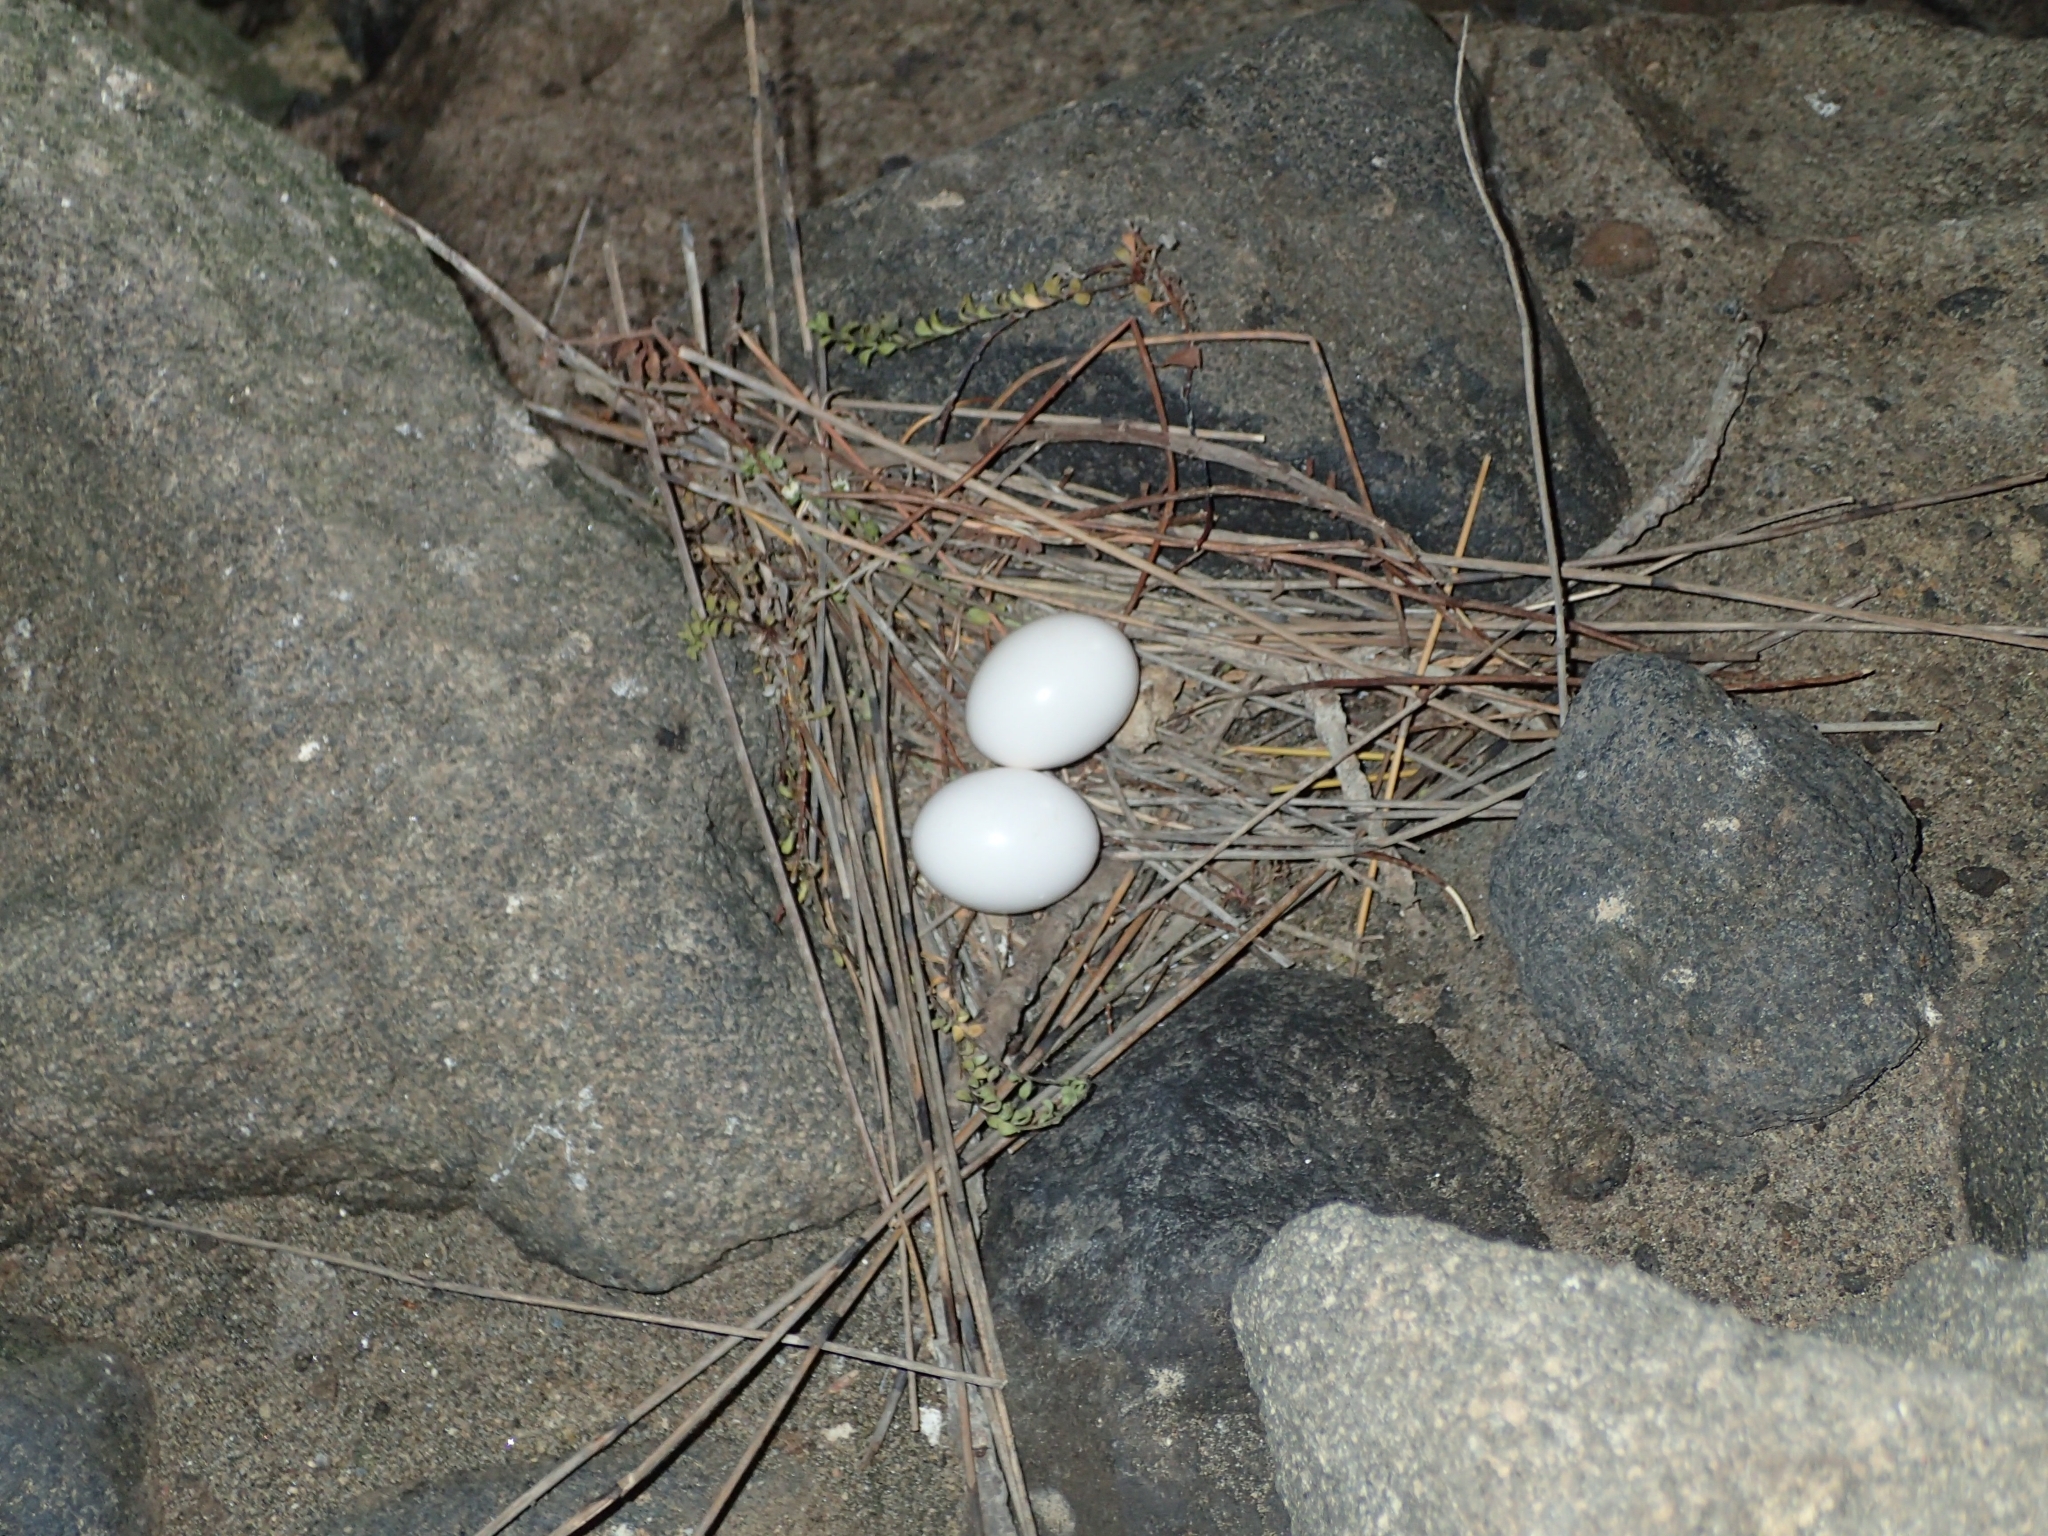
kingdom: Animalia
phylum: Chordata
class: Aves
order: Columbiformes
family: Columbidae
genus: Columba
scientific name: Columba livia
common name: Rock pigeon
